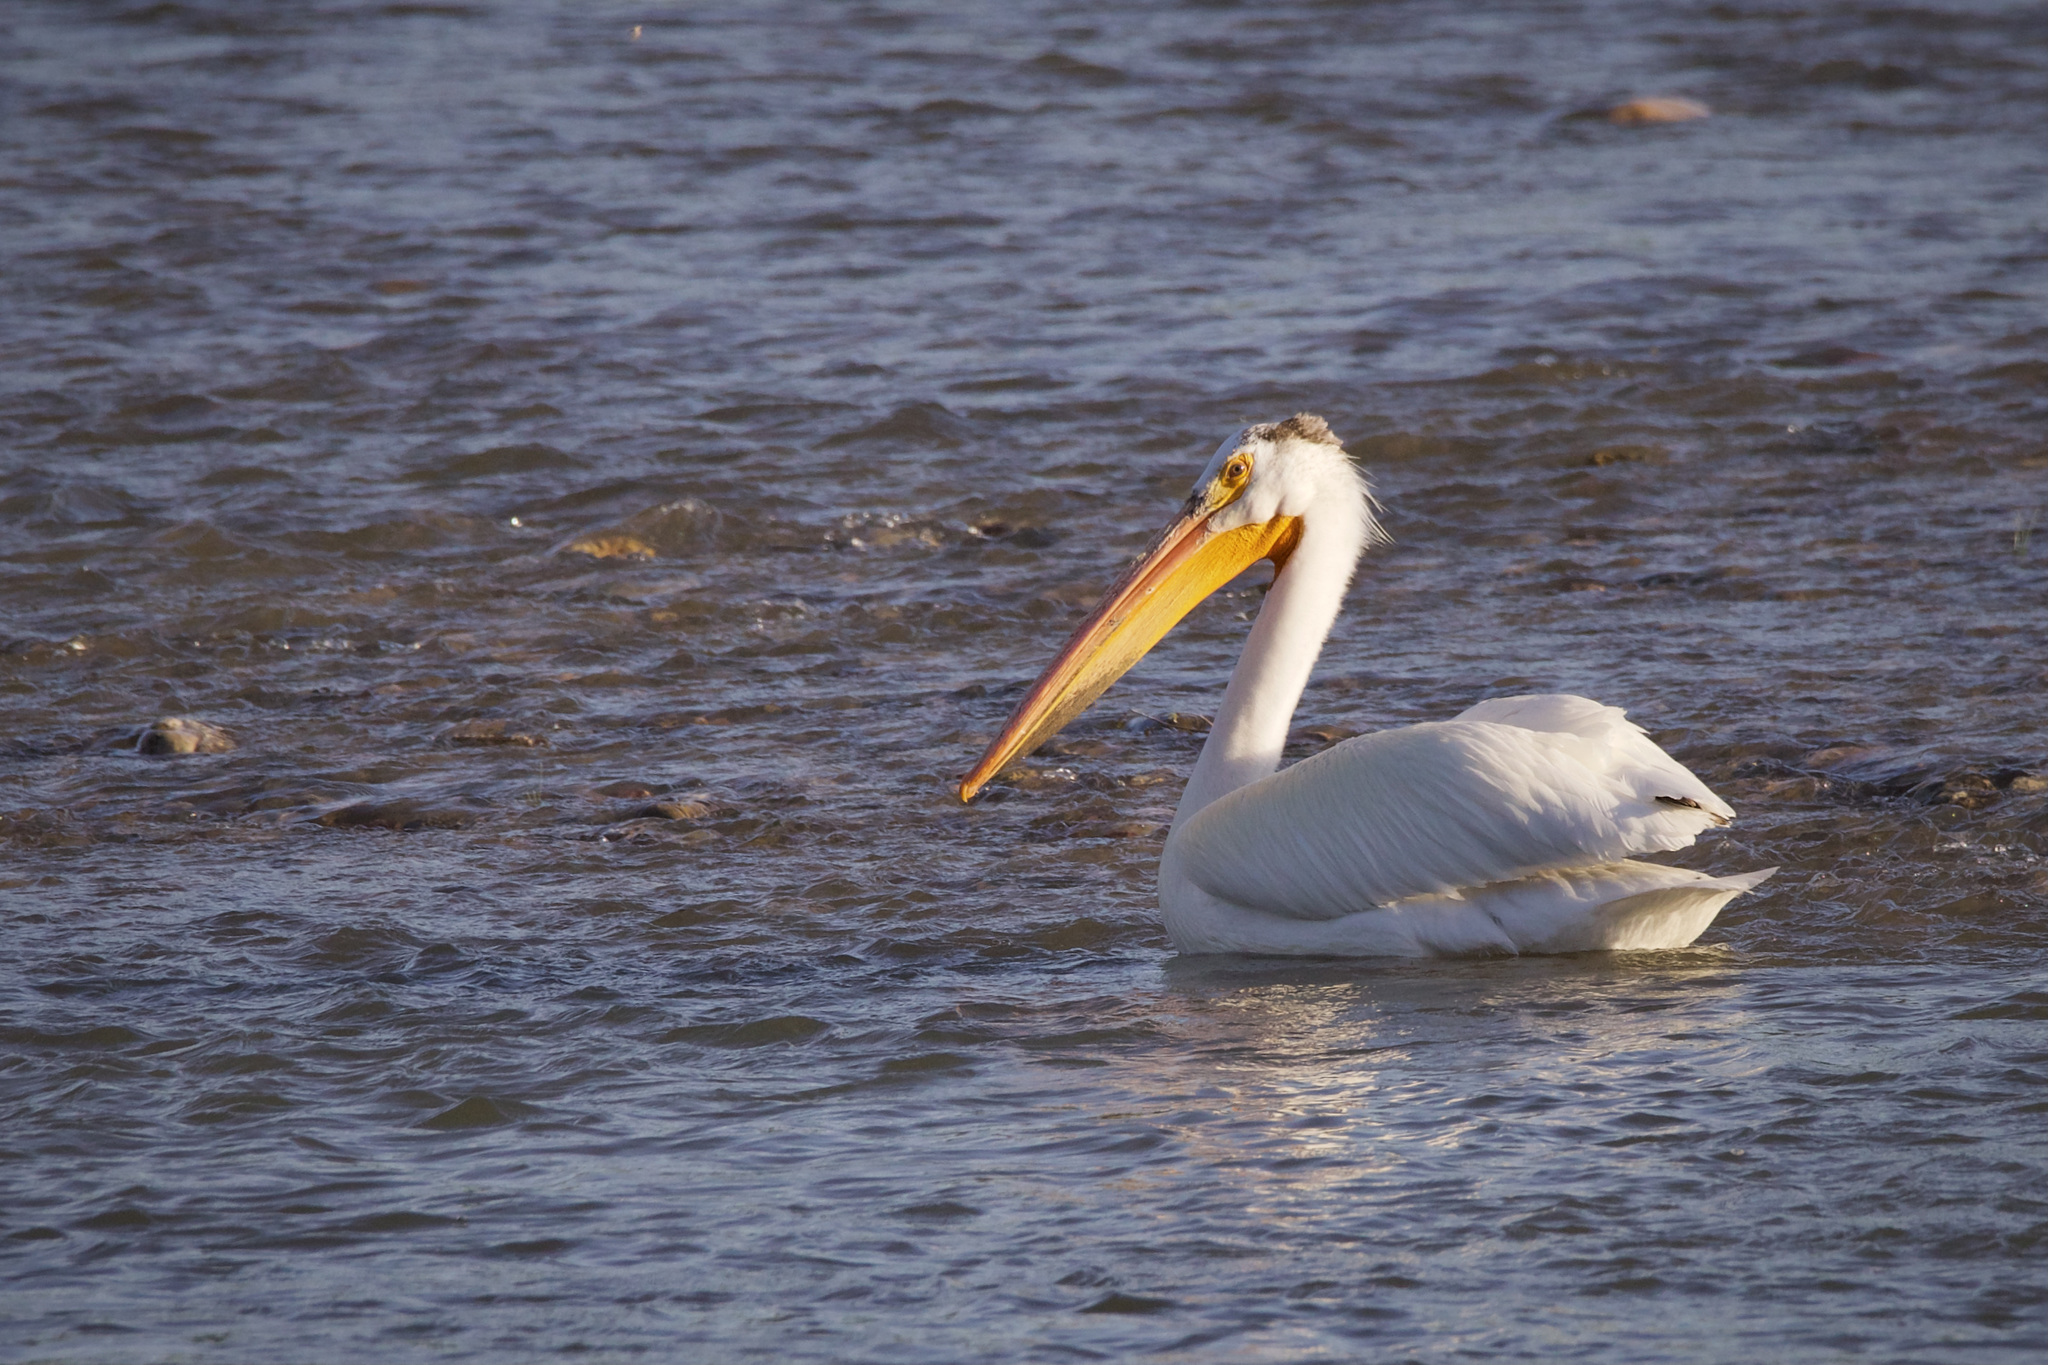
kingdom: Animalia
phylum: Chordata
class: Aves
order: Pelecaniformes
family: Pelecanidae
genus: Pelecanus
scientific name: Pelecanus erythrorhynchos
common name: American white pelican
